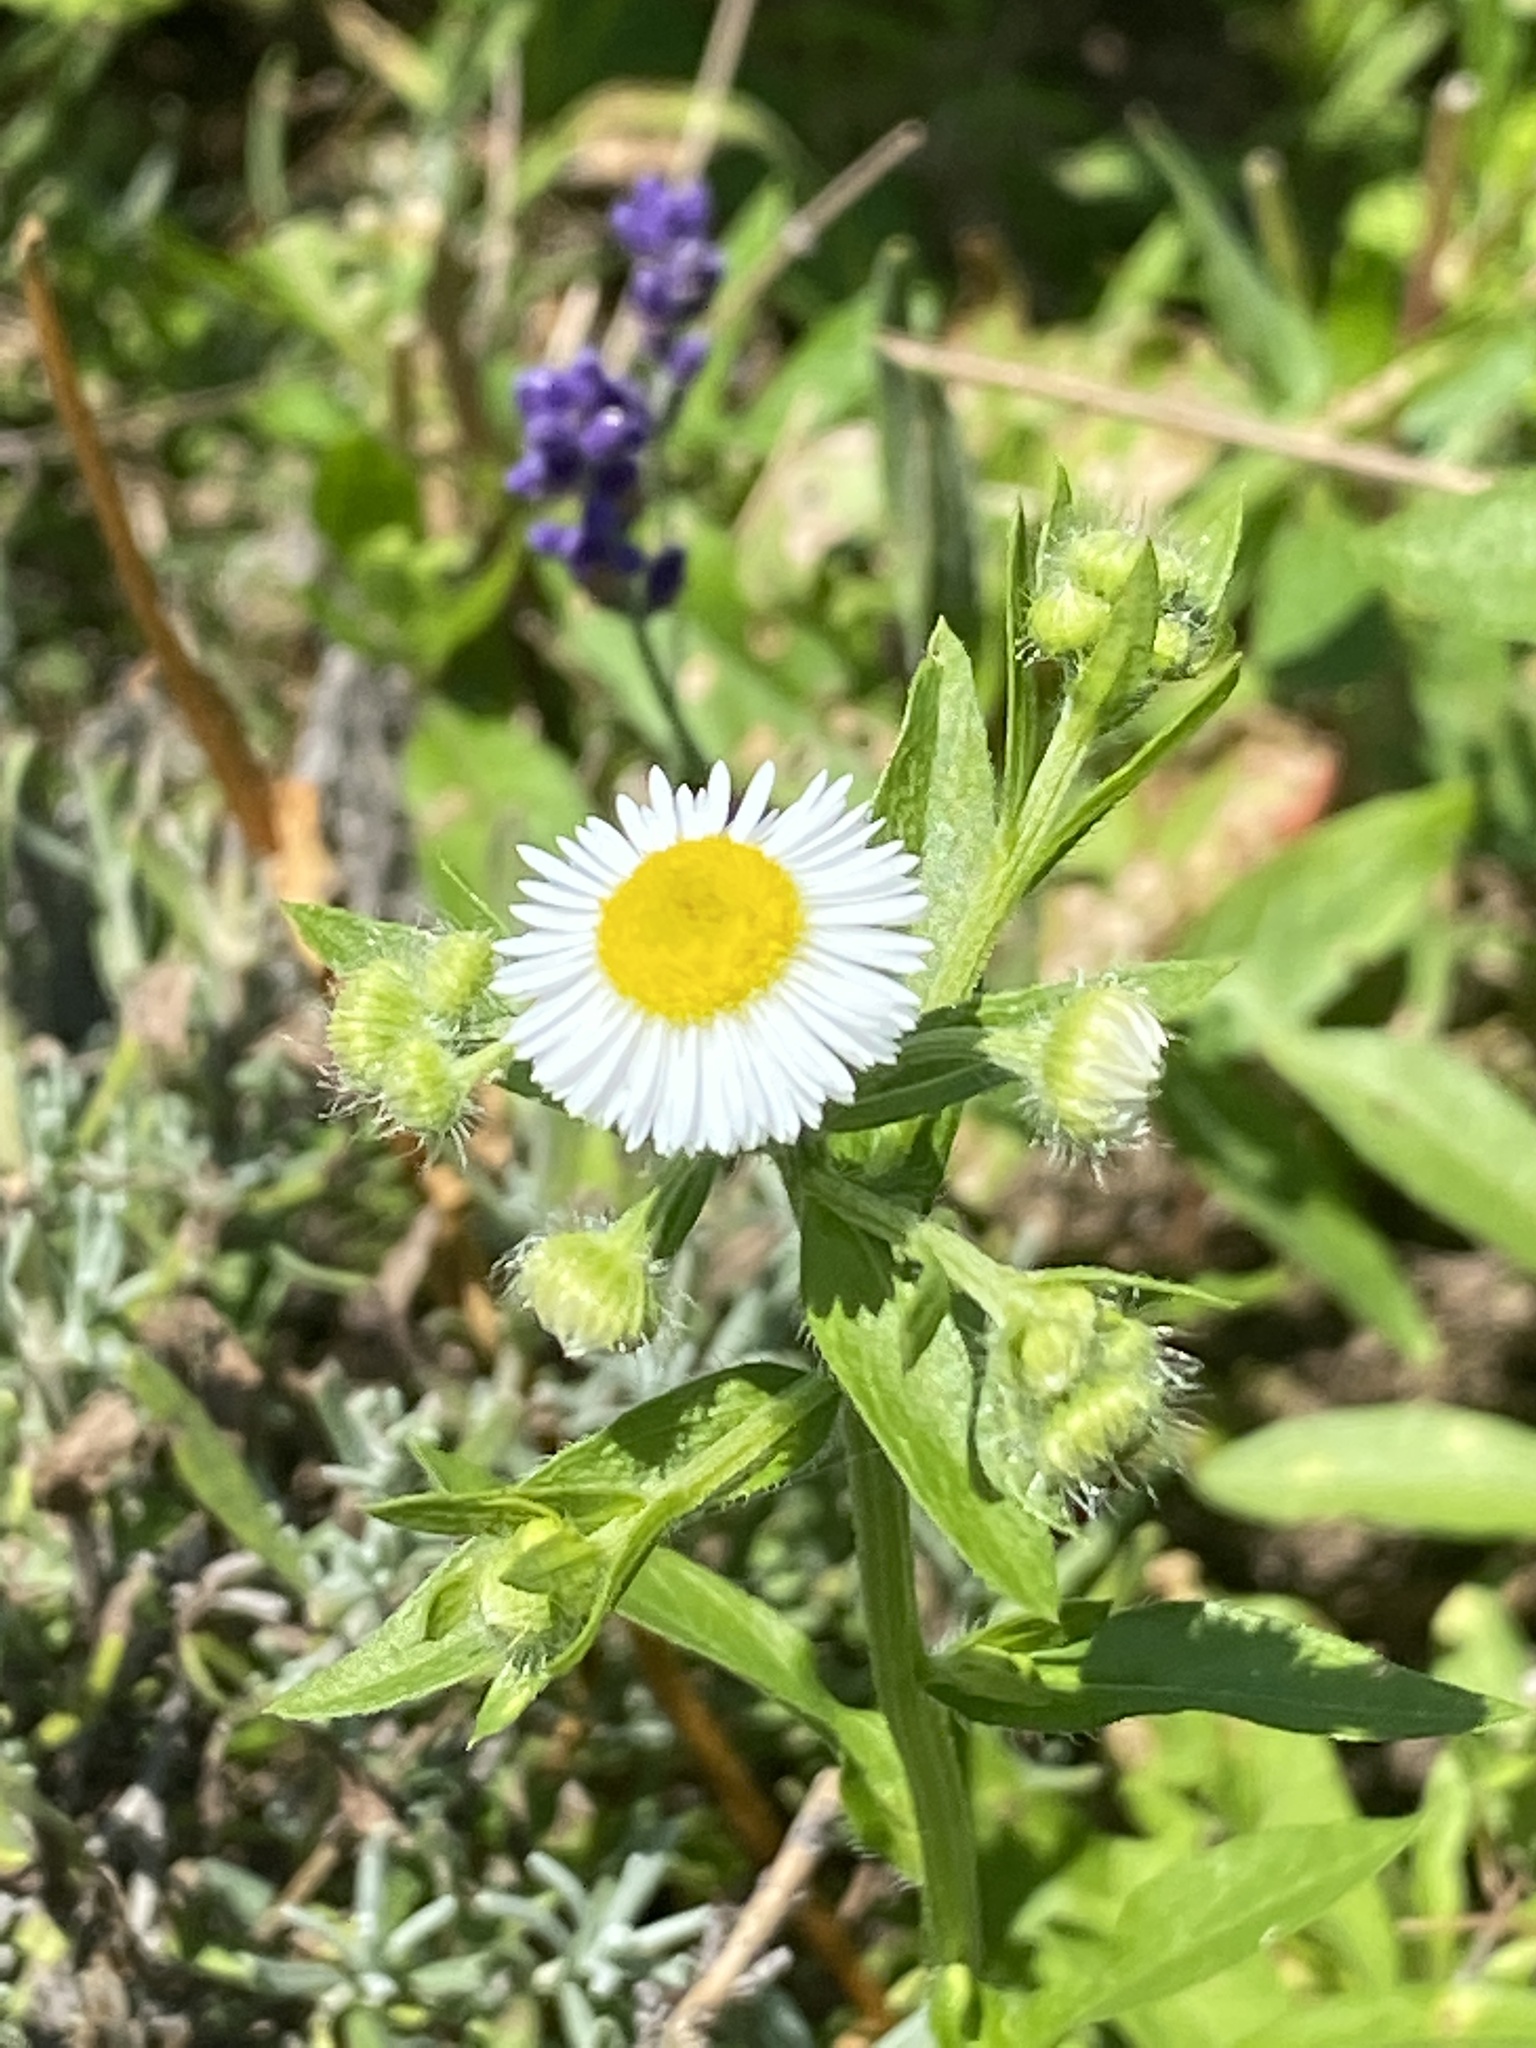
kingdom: Plantae
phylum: Tracheophyta
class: Magnoliopsida
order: Asterales
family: Asteraceae
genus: Erigeron
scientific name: Erigeron annuus
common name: Tall fleabane
